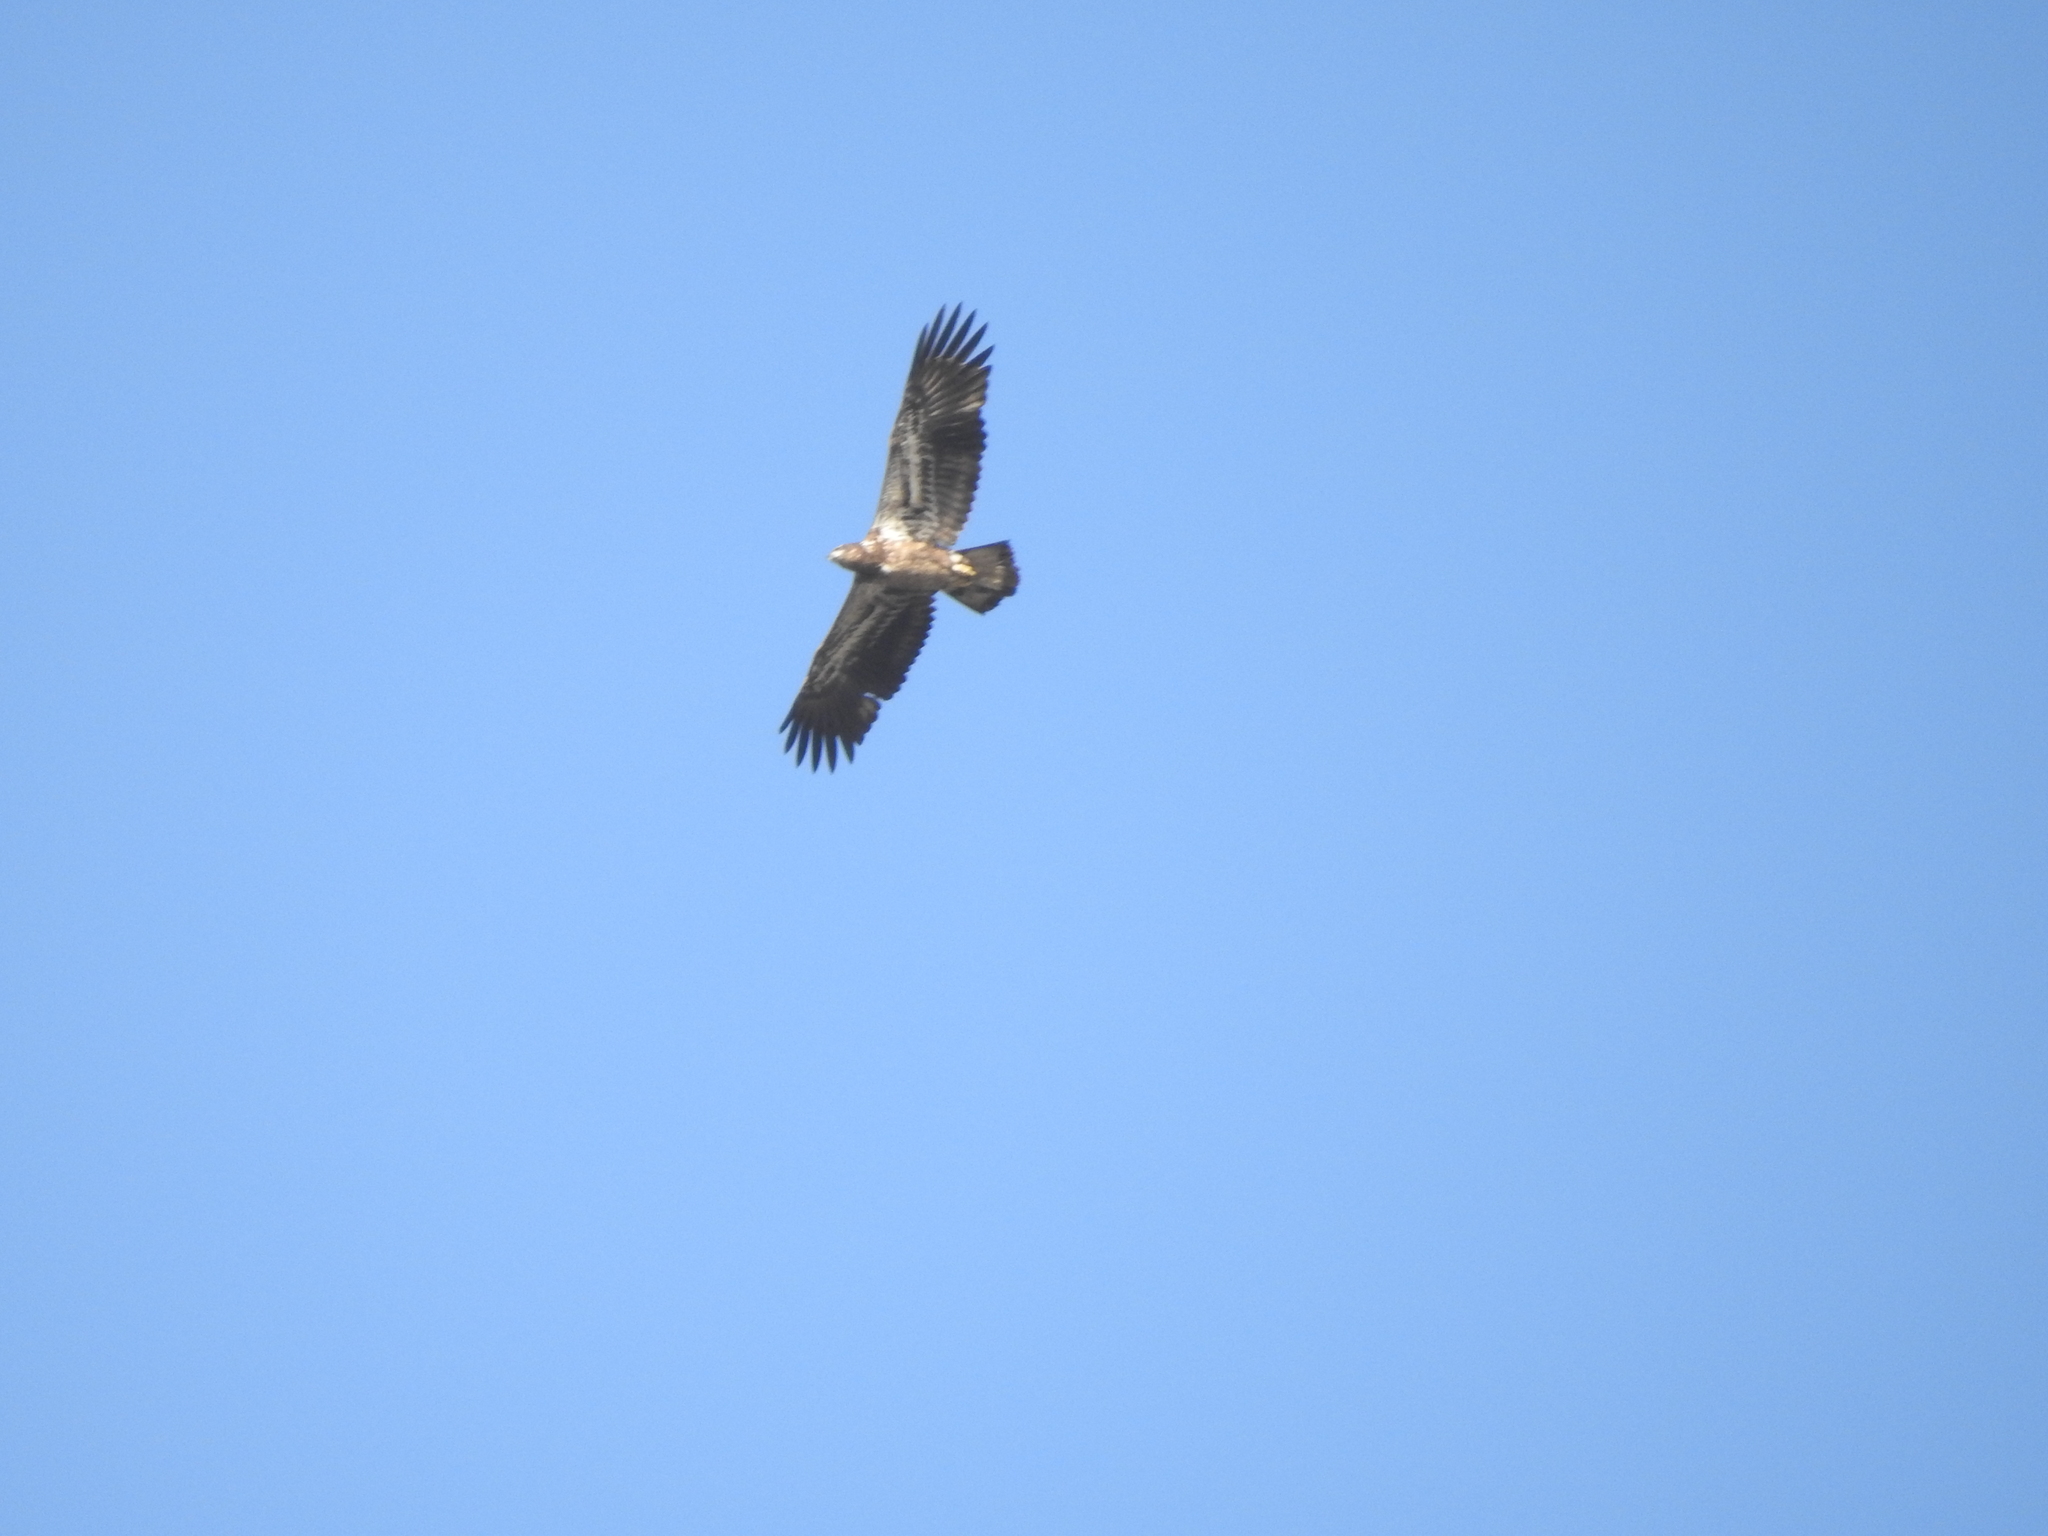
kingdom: Animalia
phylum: Chordata
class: Aves
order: Accipitriformes
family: Accipitridae
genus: Haliaeetus
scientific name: Haliaeetus leucocephalus
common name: Bald eagle
